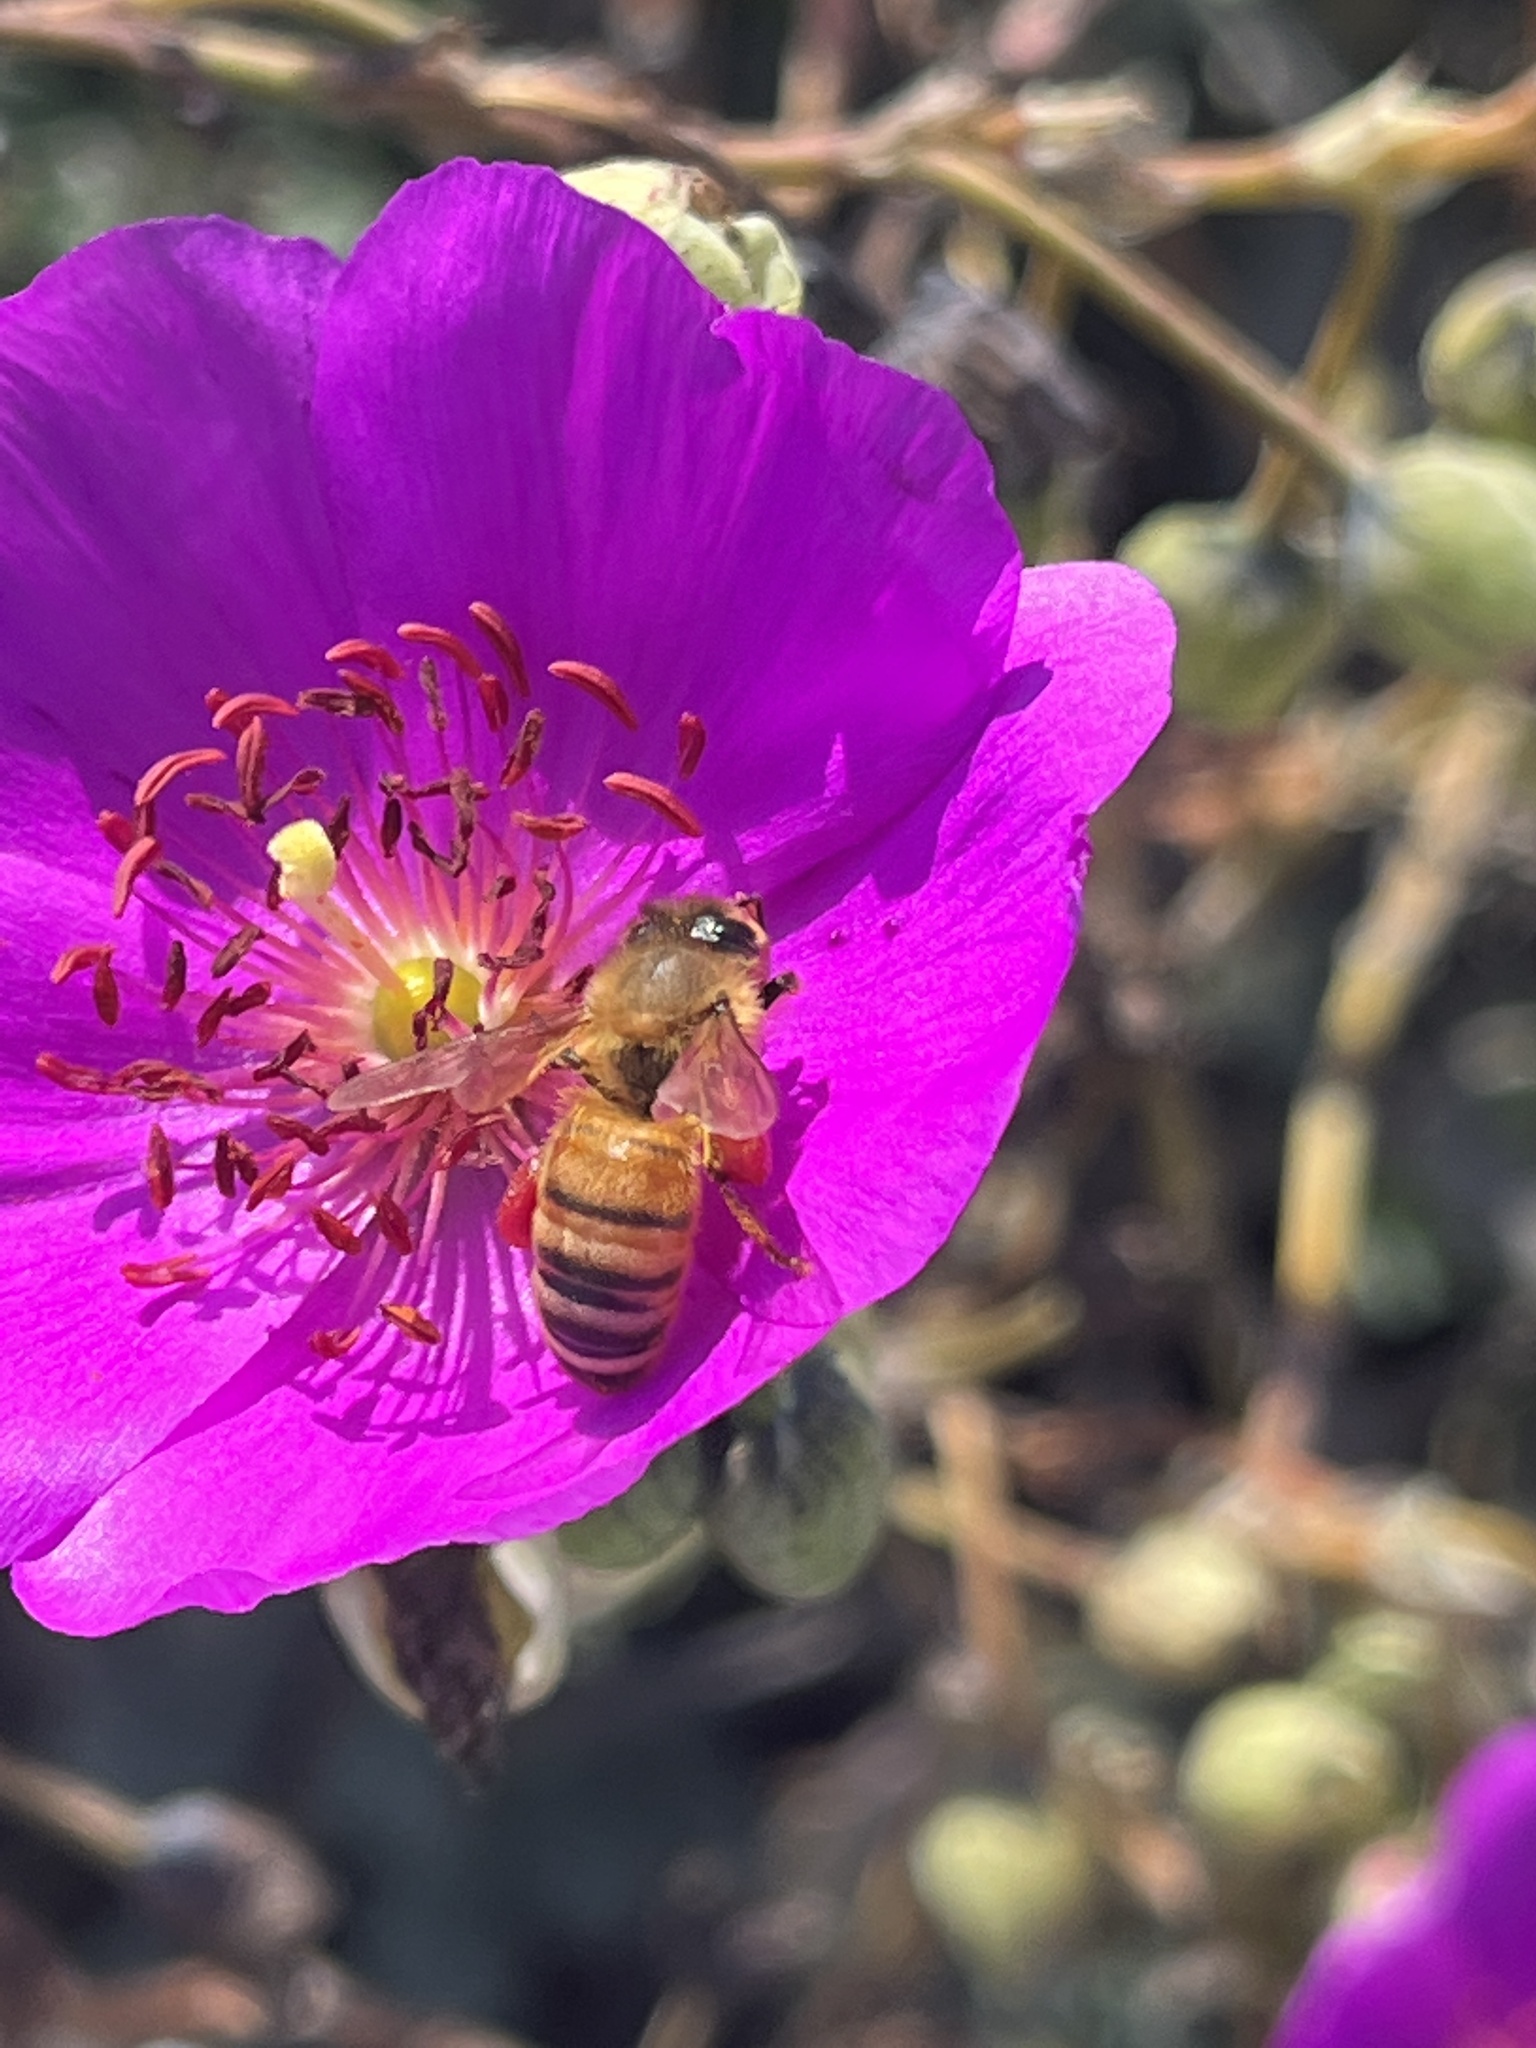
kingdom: Animalia
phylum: Arthropoda
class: Insecta
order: Hymenoptera
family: Apidae
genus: Apis
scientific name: Apis mellifera
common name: Honey bee
